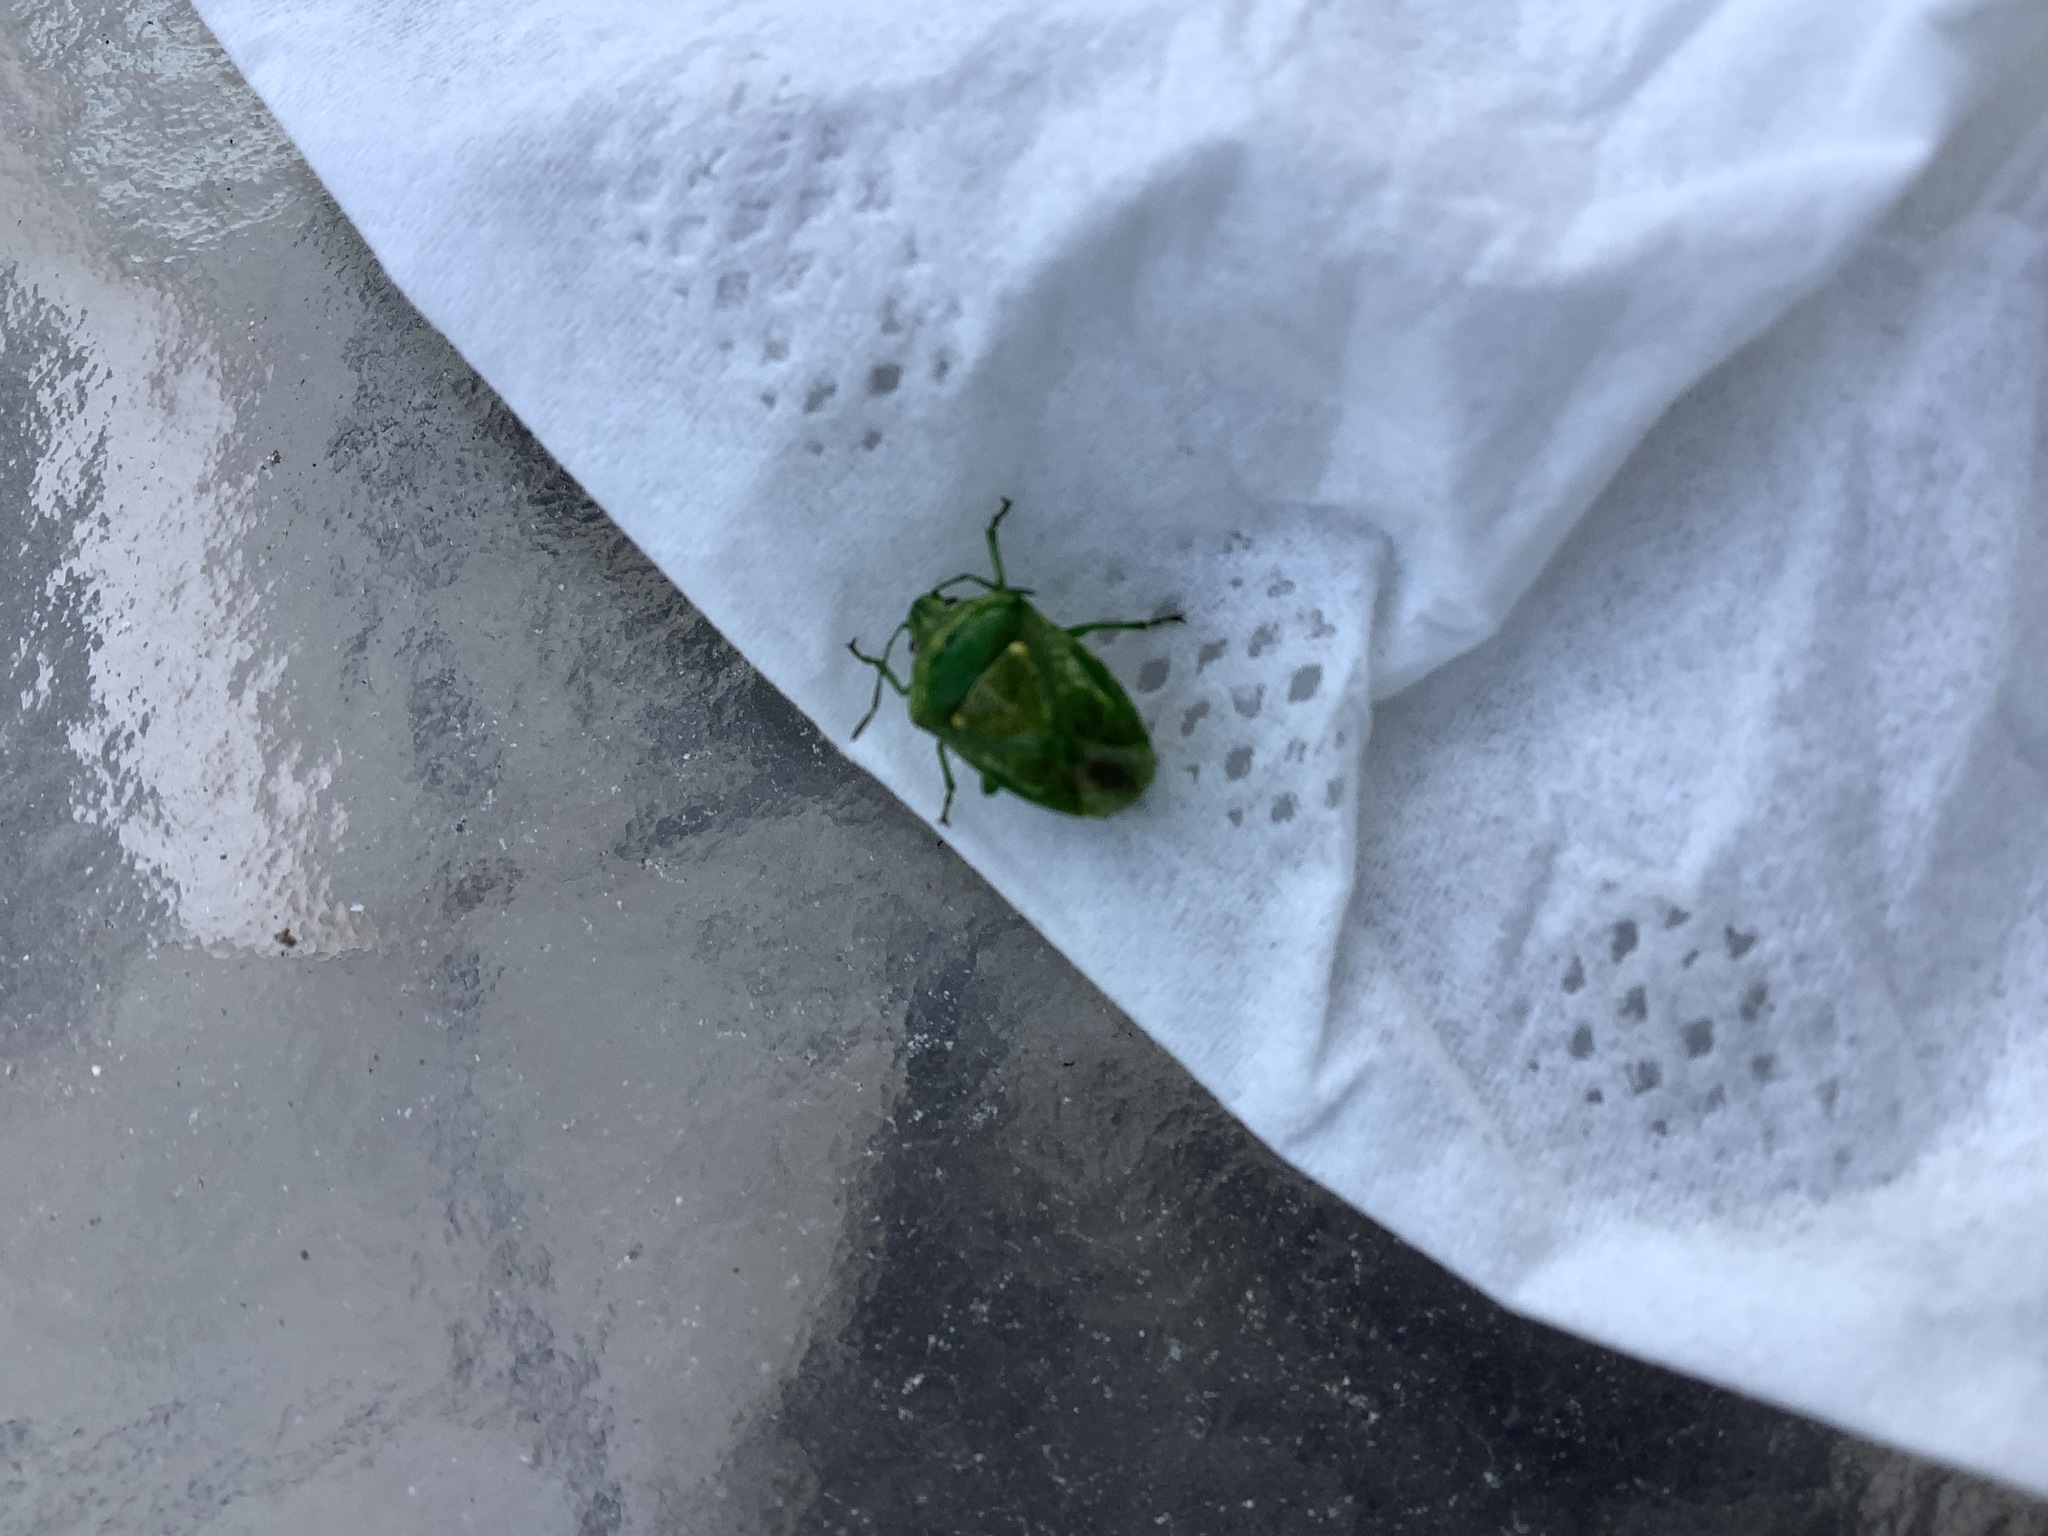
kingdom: Animalia
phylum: Arthropoda
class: Insecta
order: Hemiptera
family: Pentatomidae
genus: Banasa
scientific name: Banasa euchlora
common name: Cedar berry bug
